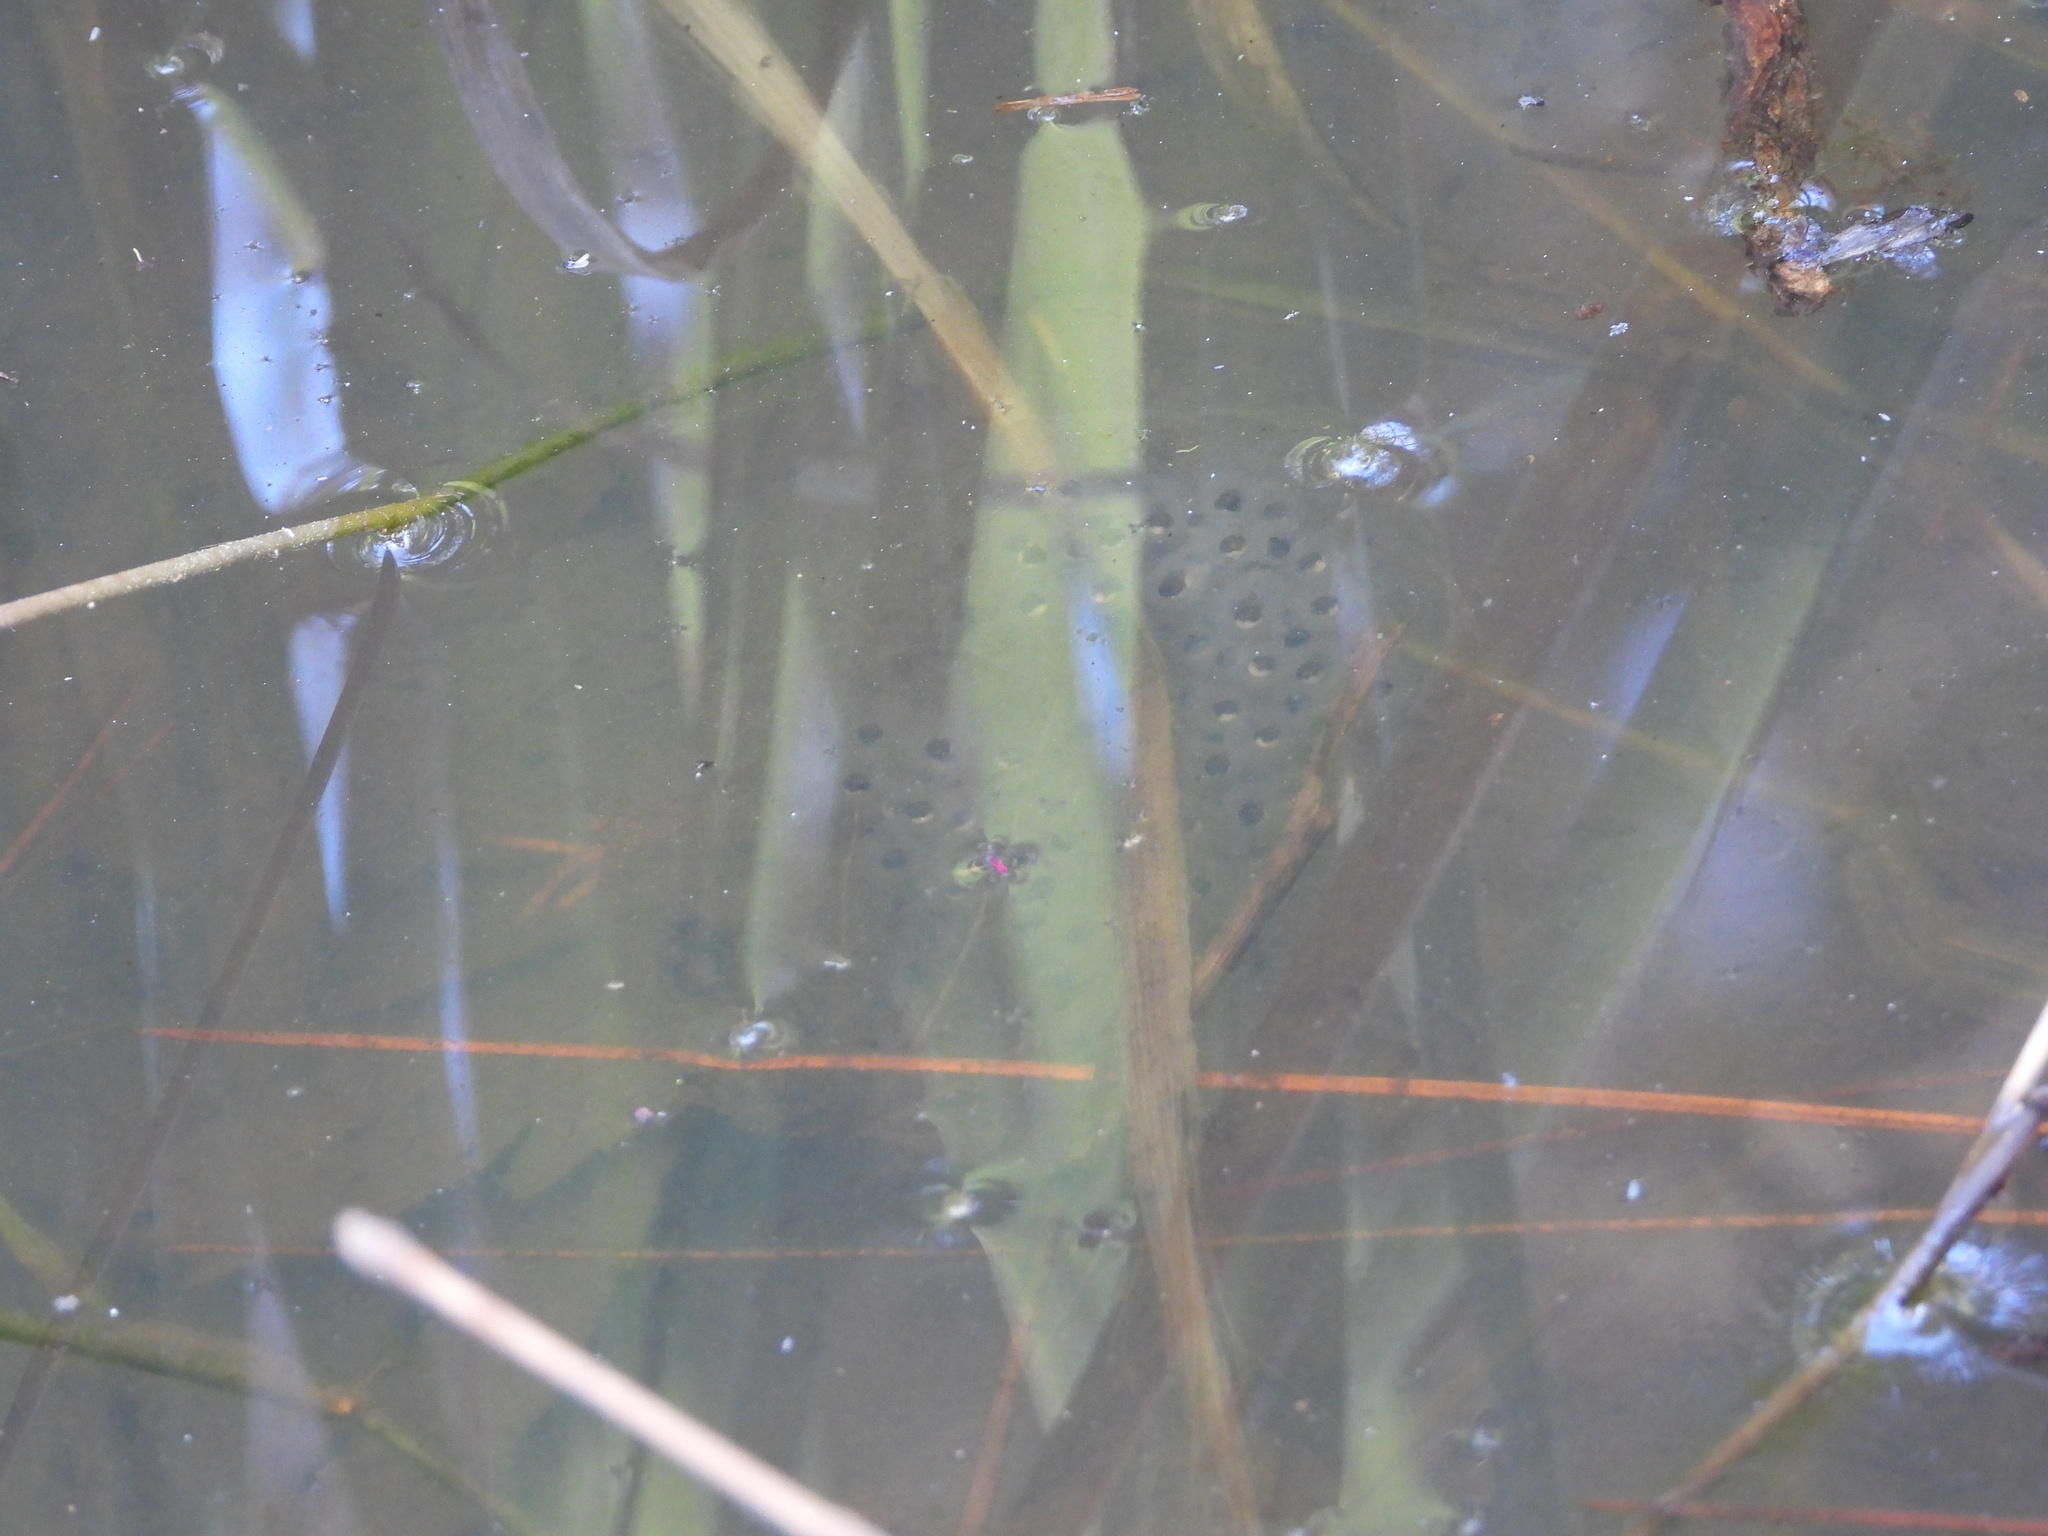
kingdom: Animalia
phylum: Chordata
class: Amphibia
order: Caudata
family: Ambystomatidae
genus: Ambystoma
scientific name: Ambystoma maculatum
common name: Spotted salamander
